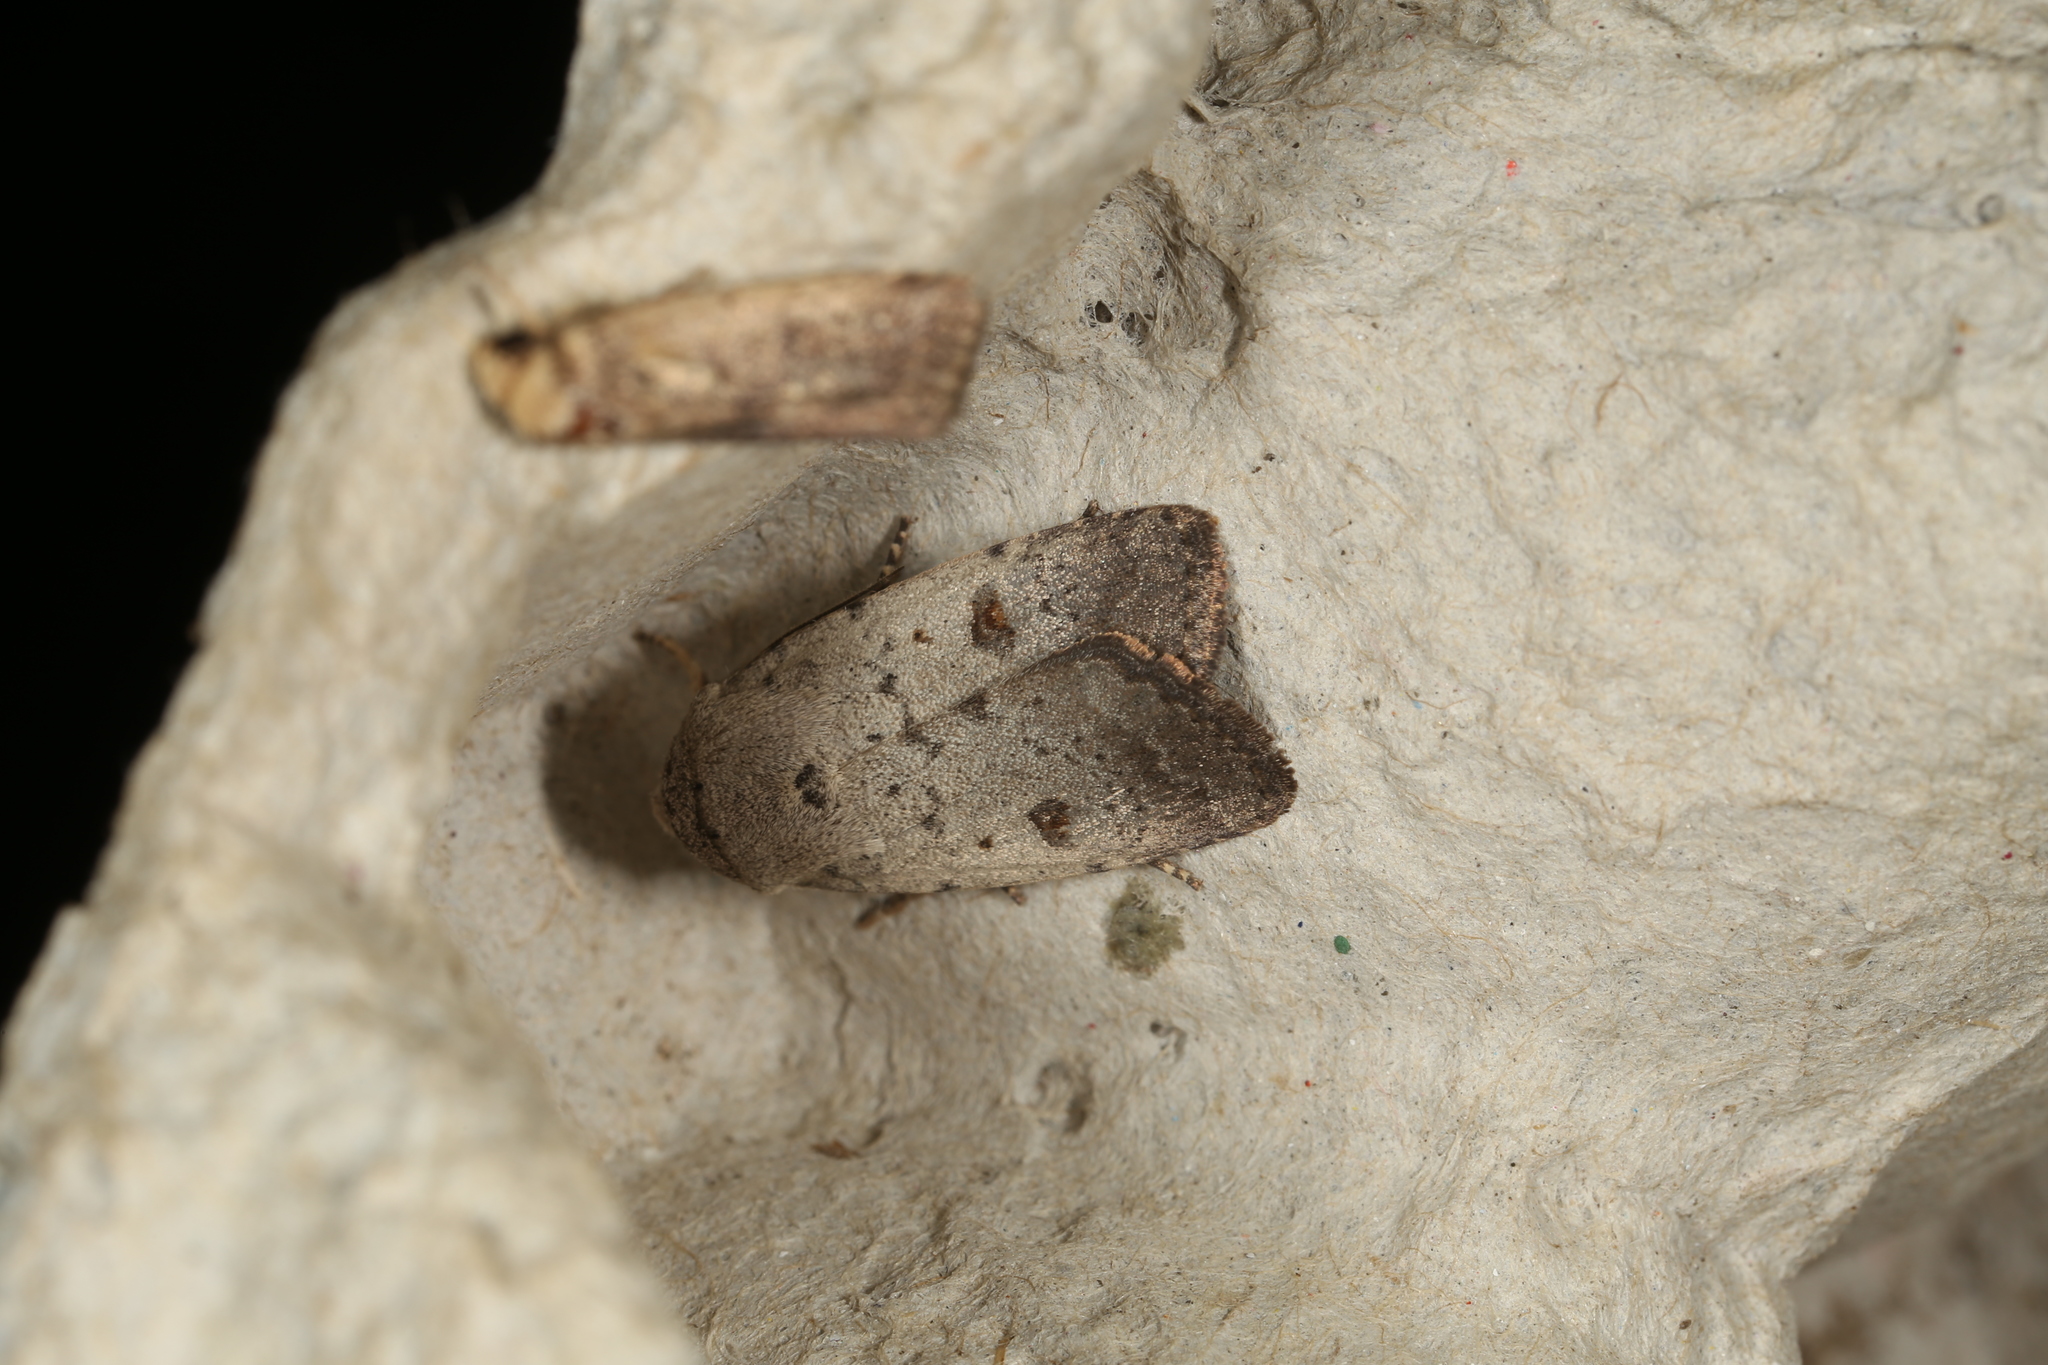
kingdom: Animalia
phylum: Arthropoda
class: Insecta
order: Lepidoptera
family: Noctuidae
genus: Proteuxoa
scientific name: Proteuxoa tibiata
